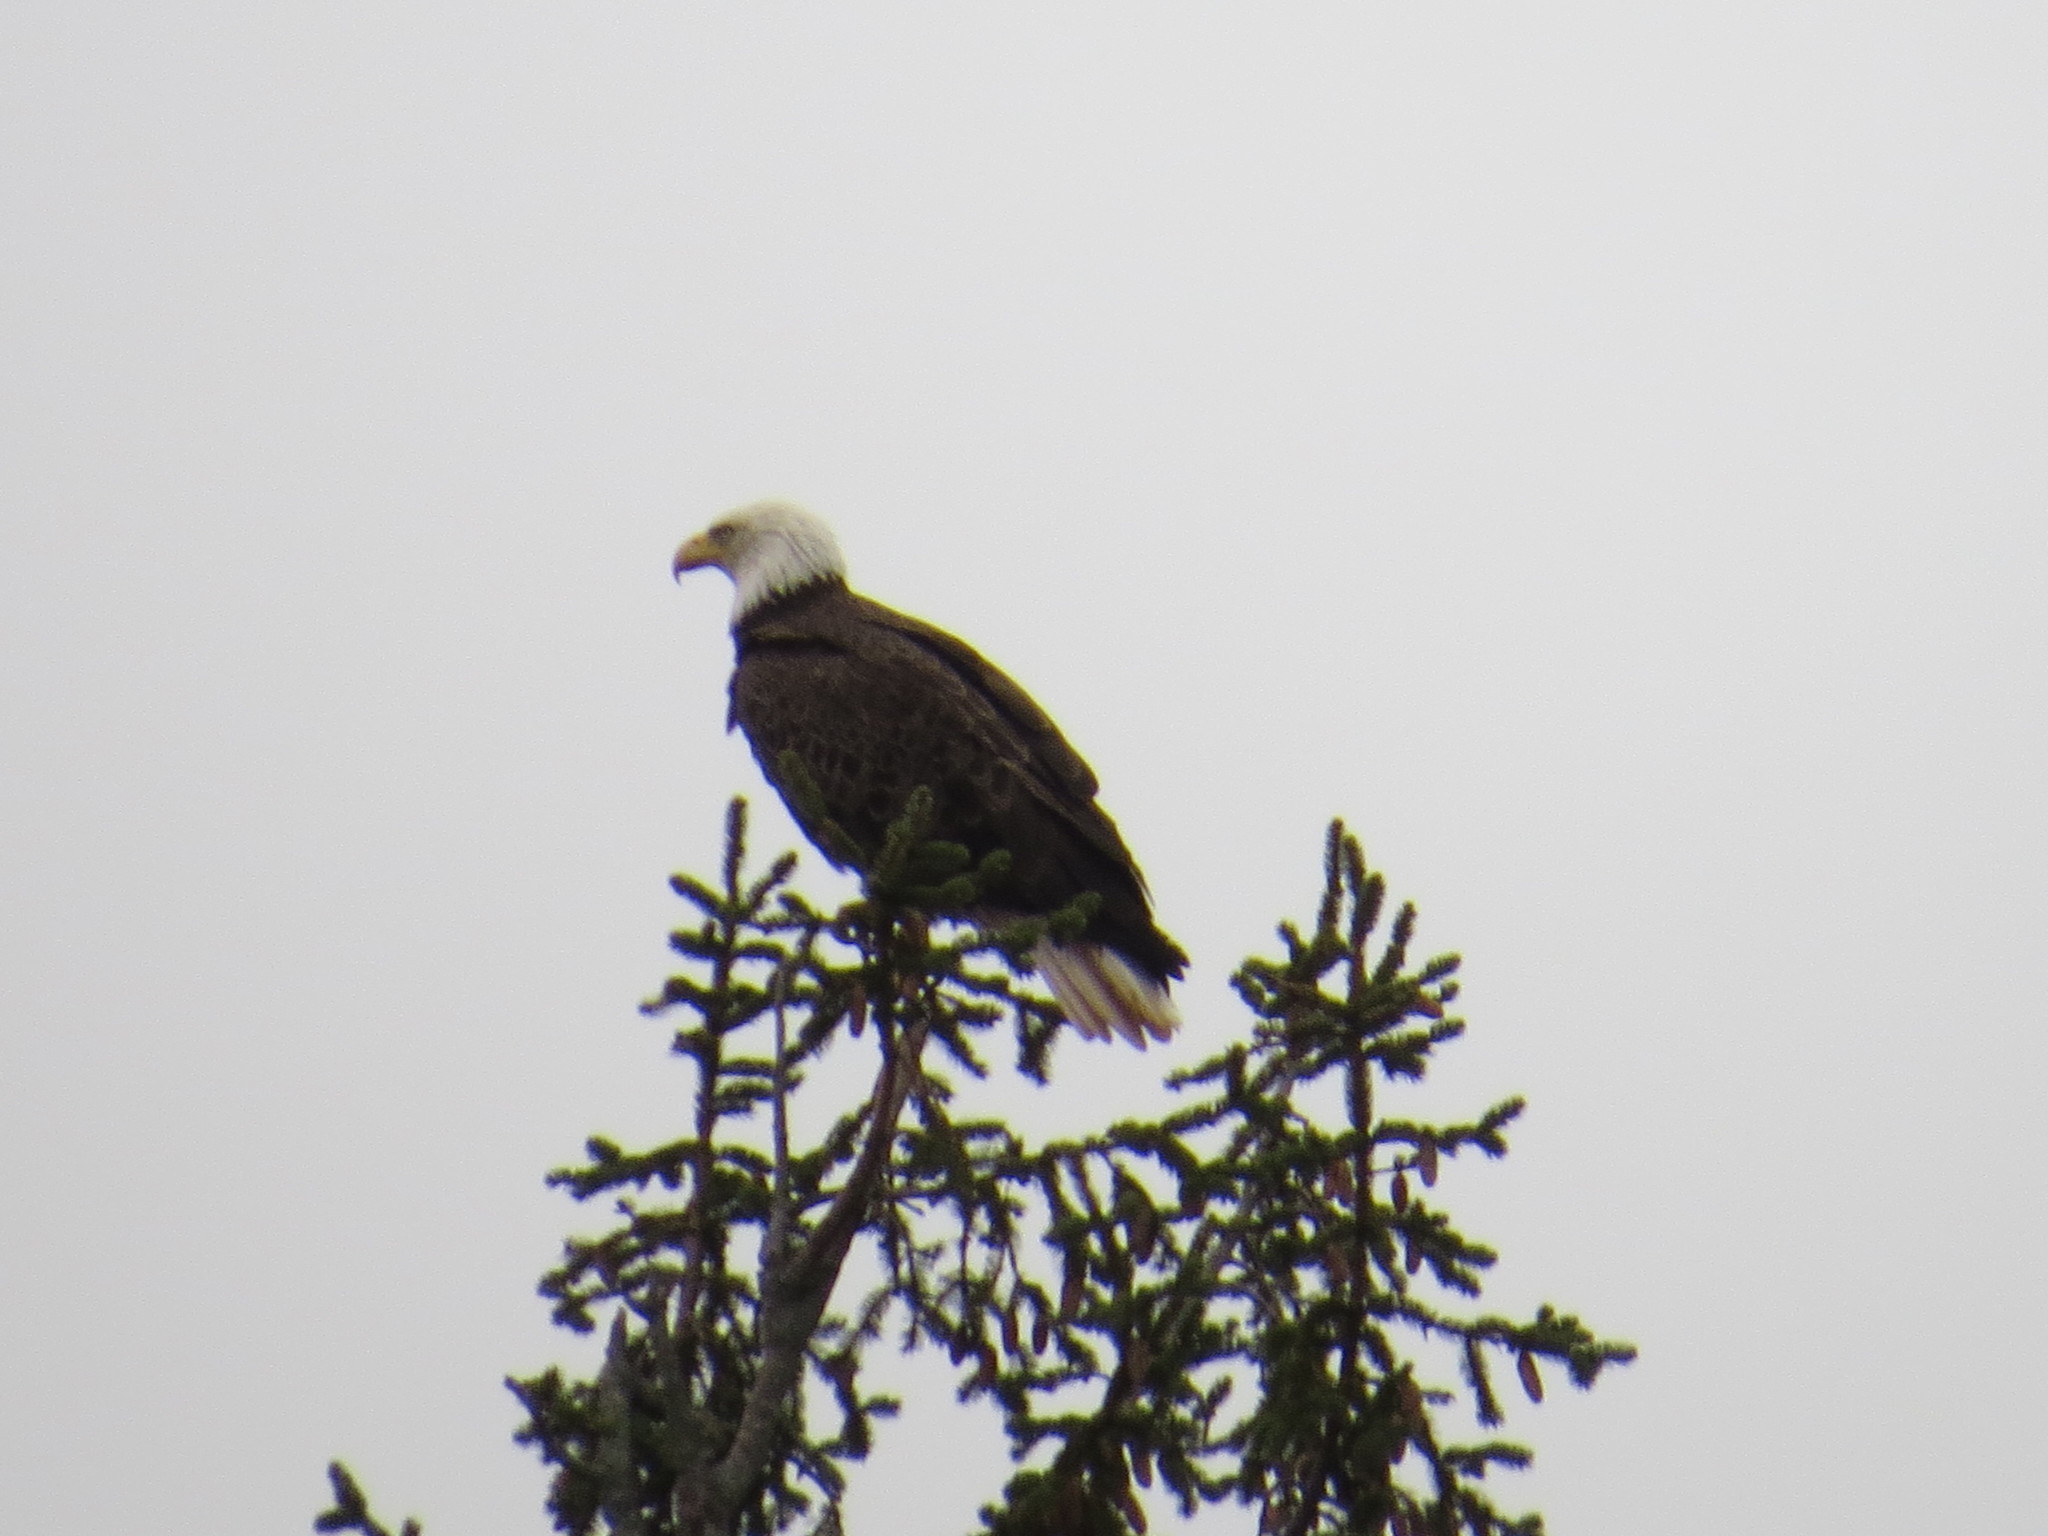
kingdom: Animalia
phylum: Chordata
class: Aves
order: Accipitriformes
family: Accipitridae
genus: Haliaeetus
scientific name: Haliaeetus leucocephalus
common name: Bald eagle
